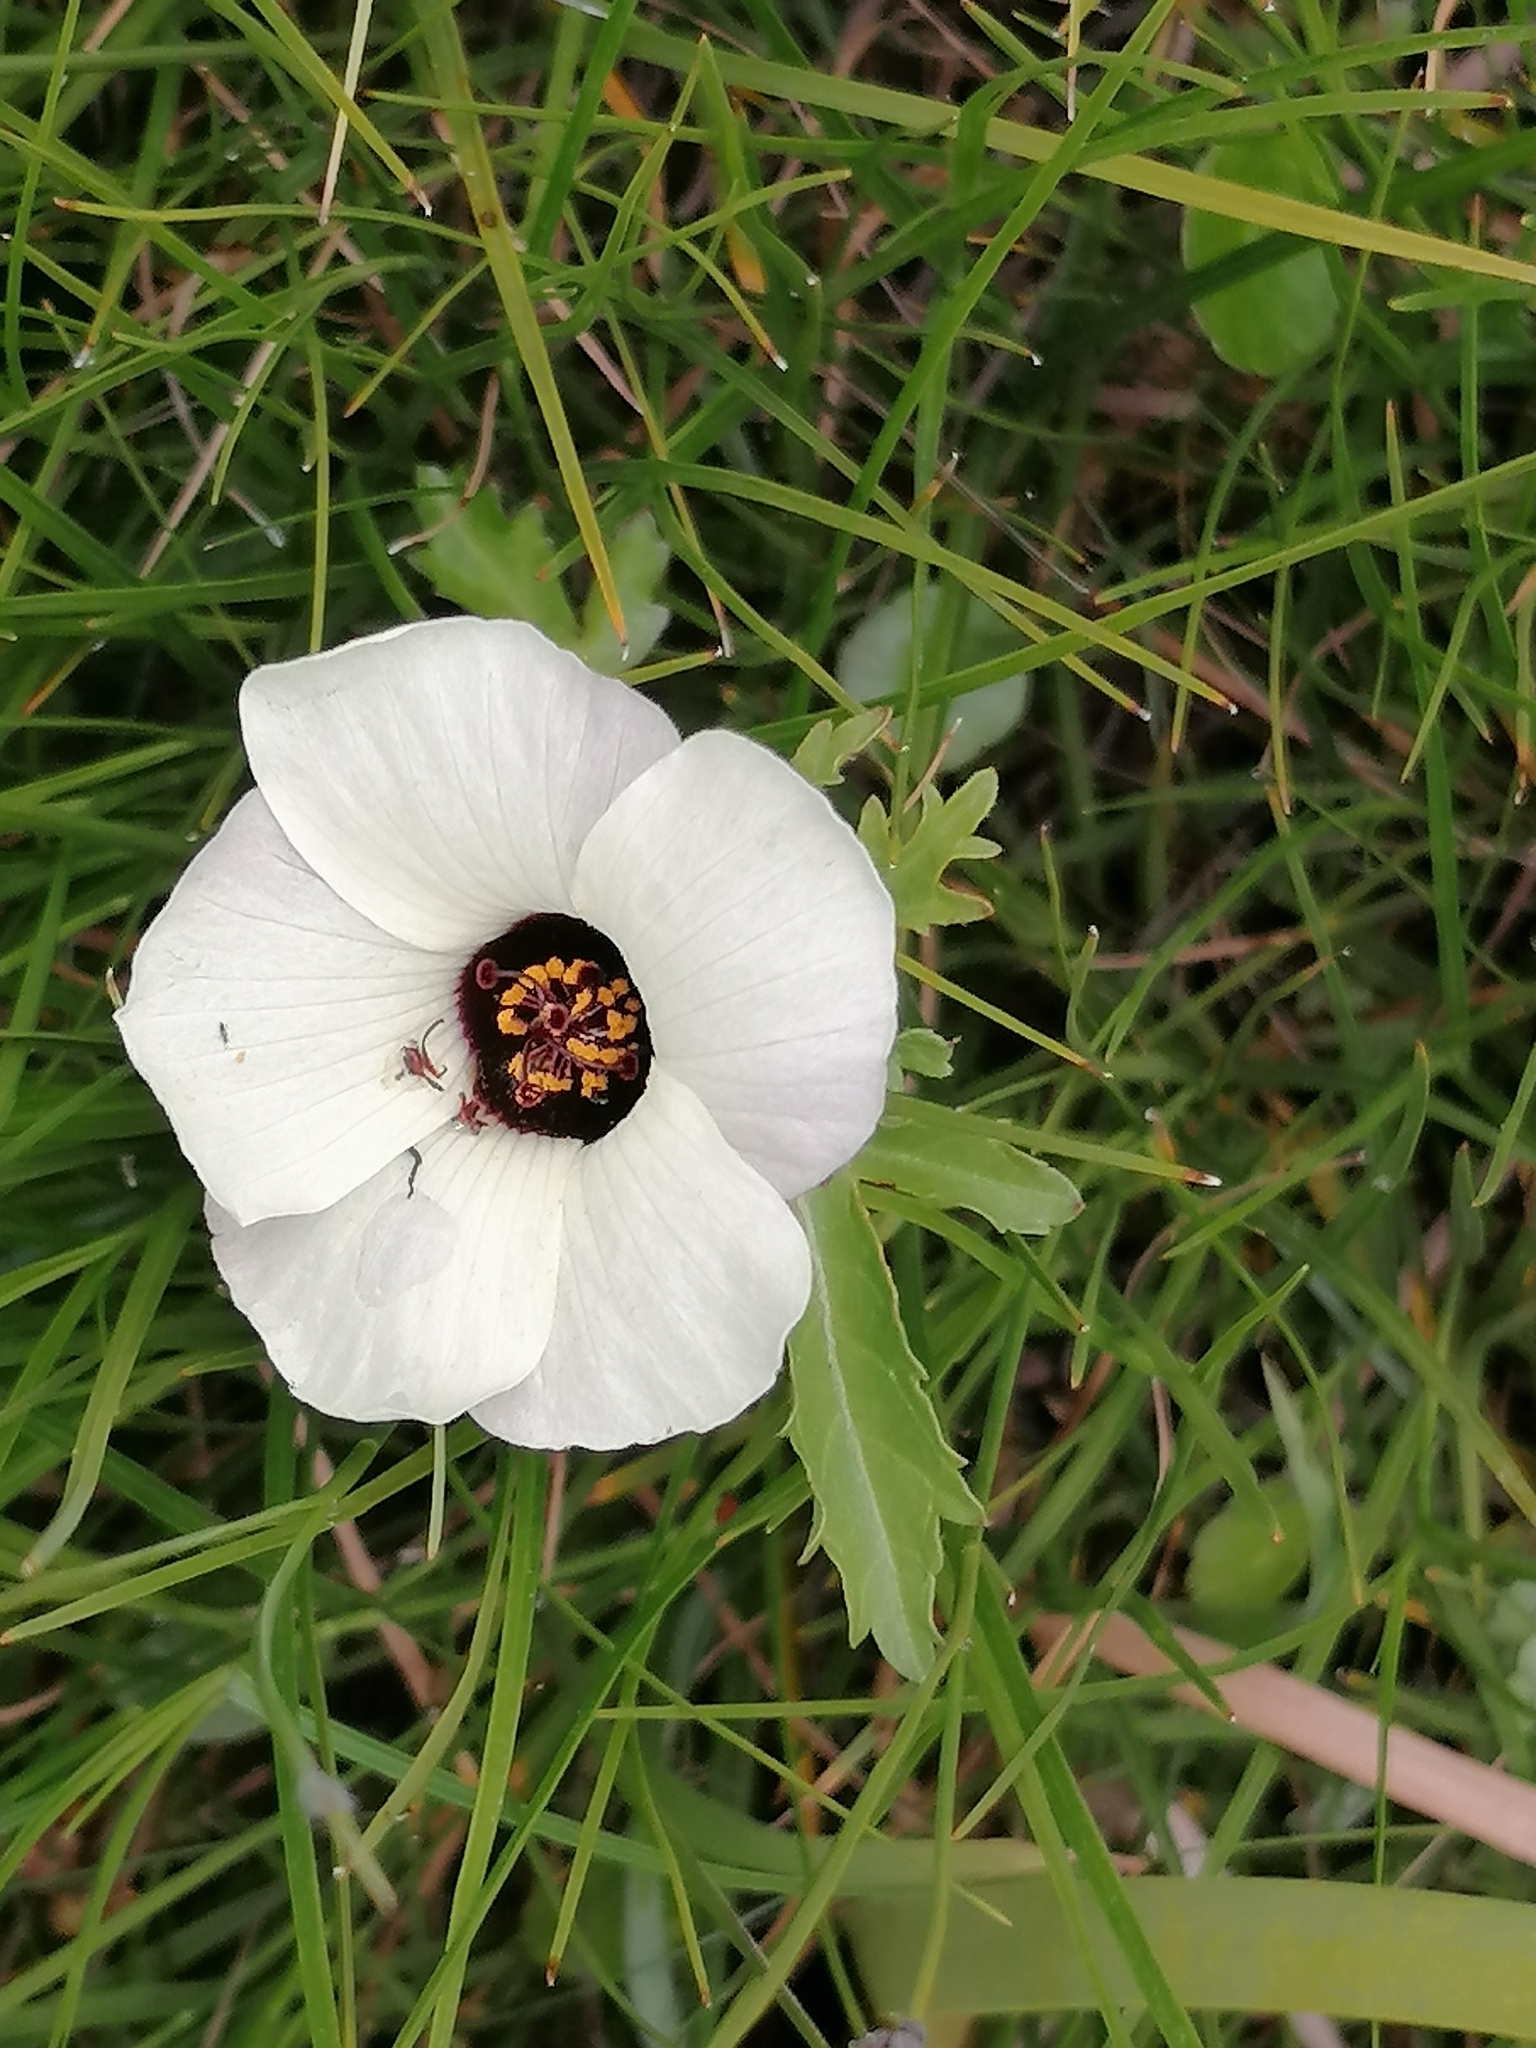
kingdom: Plantae
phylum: Tracheophyta
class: Magnoliopsida
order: Malvales
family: Malvaceae
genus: Hibiscus
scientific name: Hibiscus trionum
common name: Bladder ketmia
